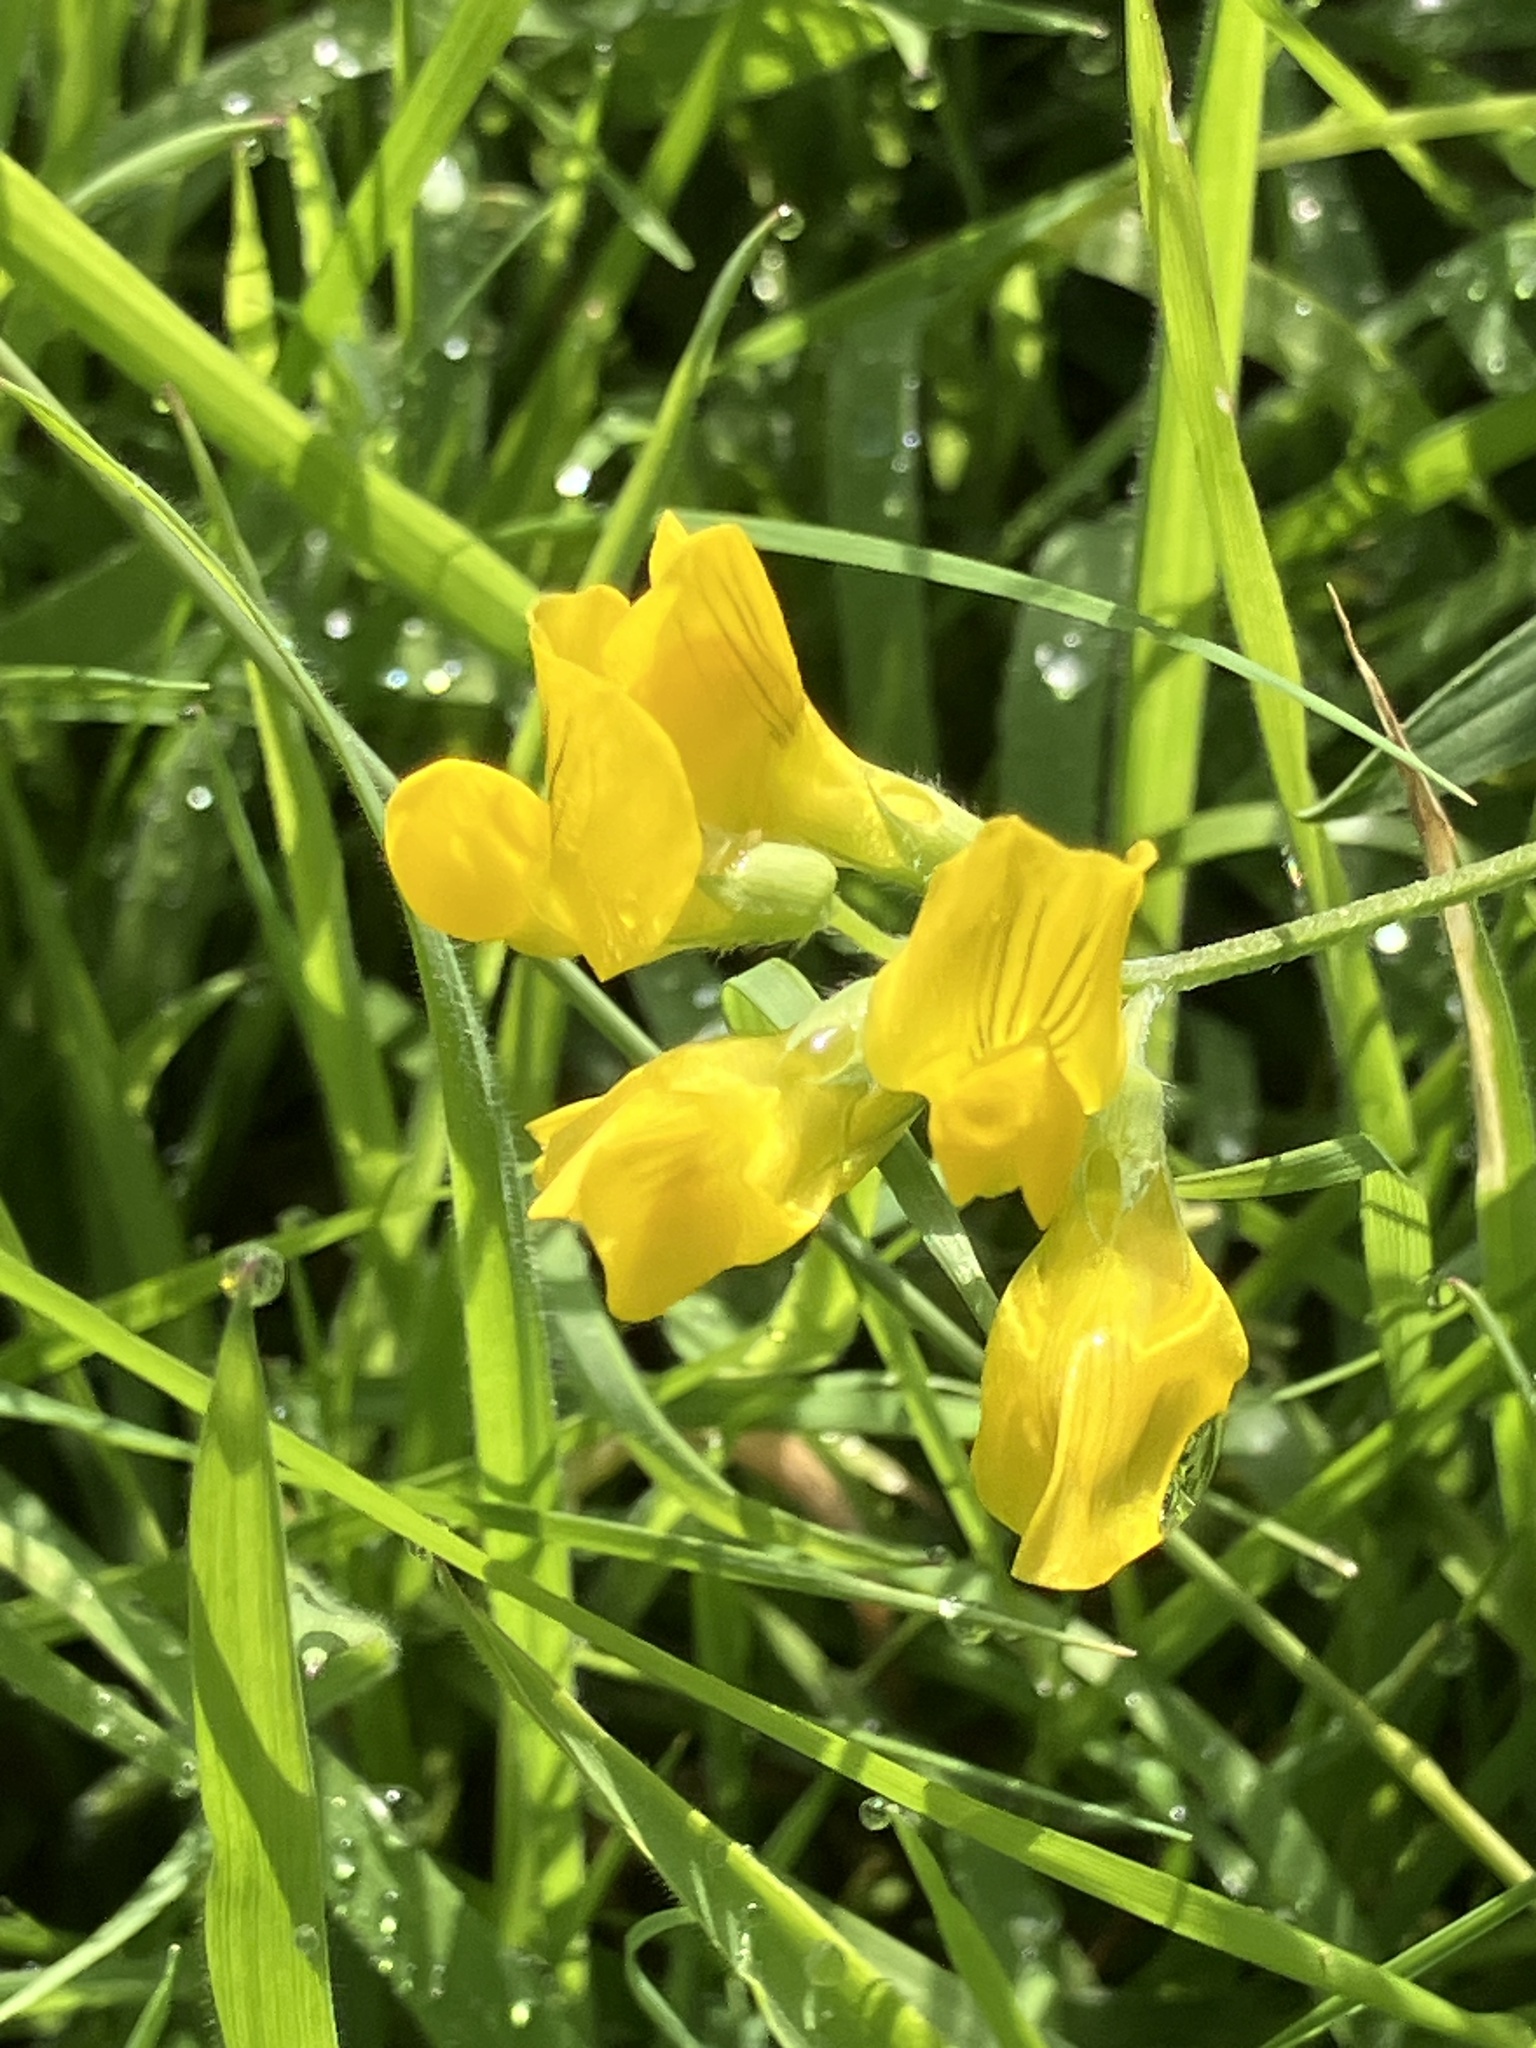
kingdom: Plantae
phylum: Tracheophyta
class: Magnoliopsida
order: Fabales
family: Fabaceae
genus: Lathyrus
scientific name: Lathyrus pratensis
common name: Meadow vetchling
